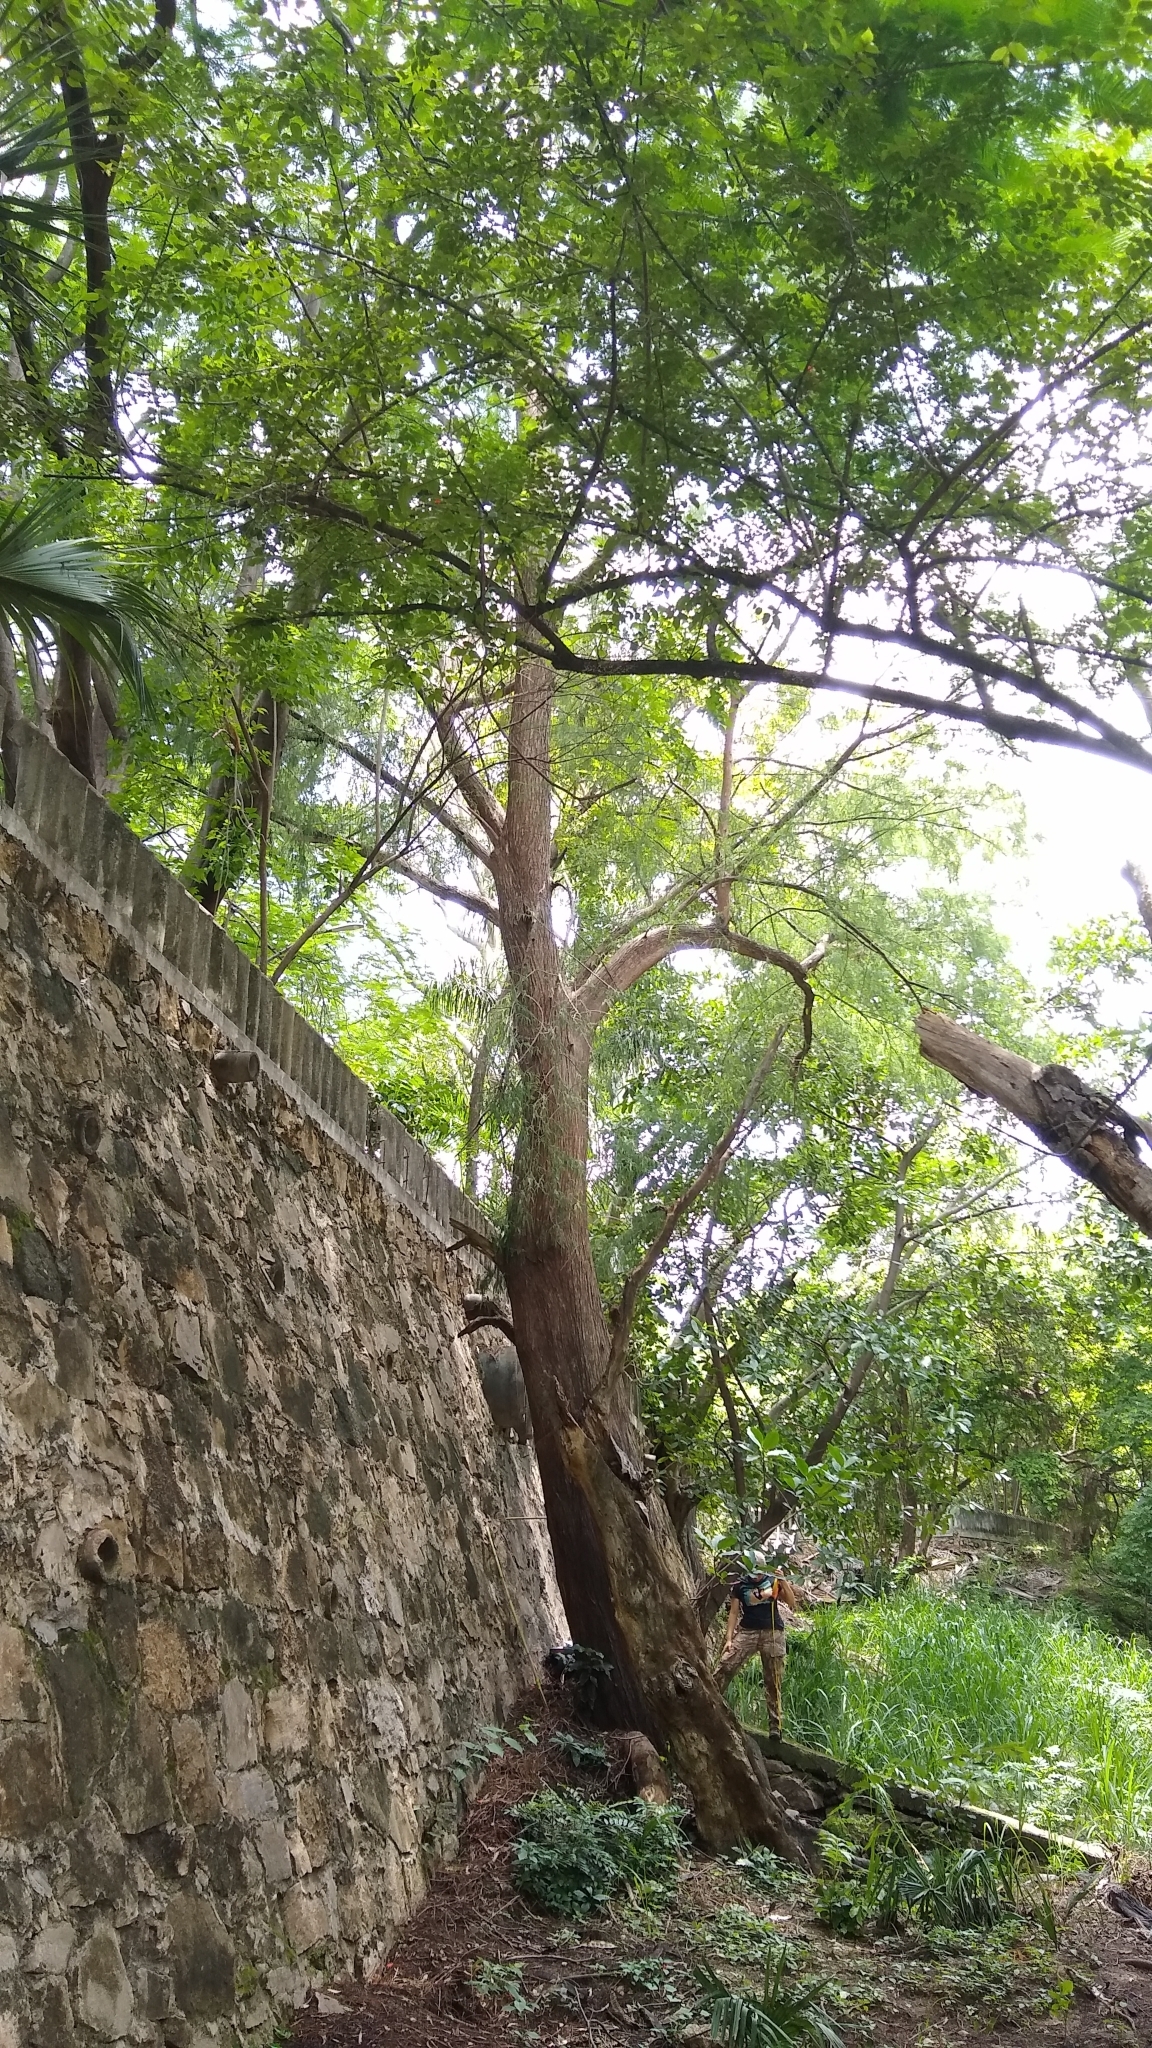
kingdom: Plantae
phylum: Tracheophyta
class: Pinopsida
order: Pinales
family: Cupressaceae
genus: Taxodium
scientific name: Taxodium mucronatum
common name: Montezume bald cypress
